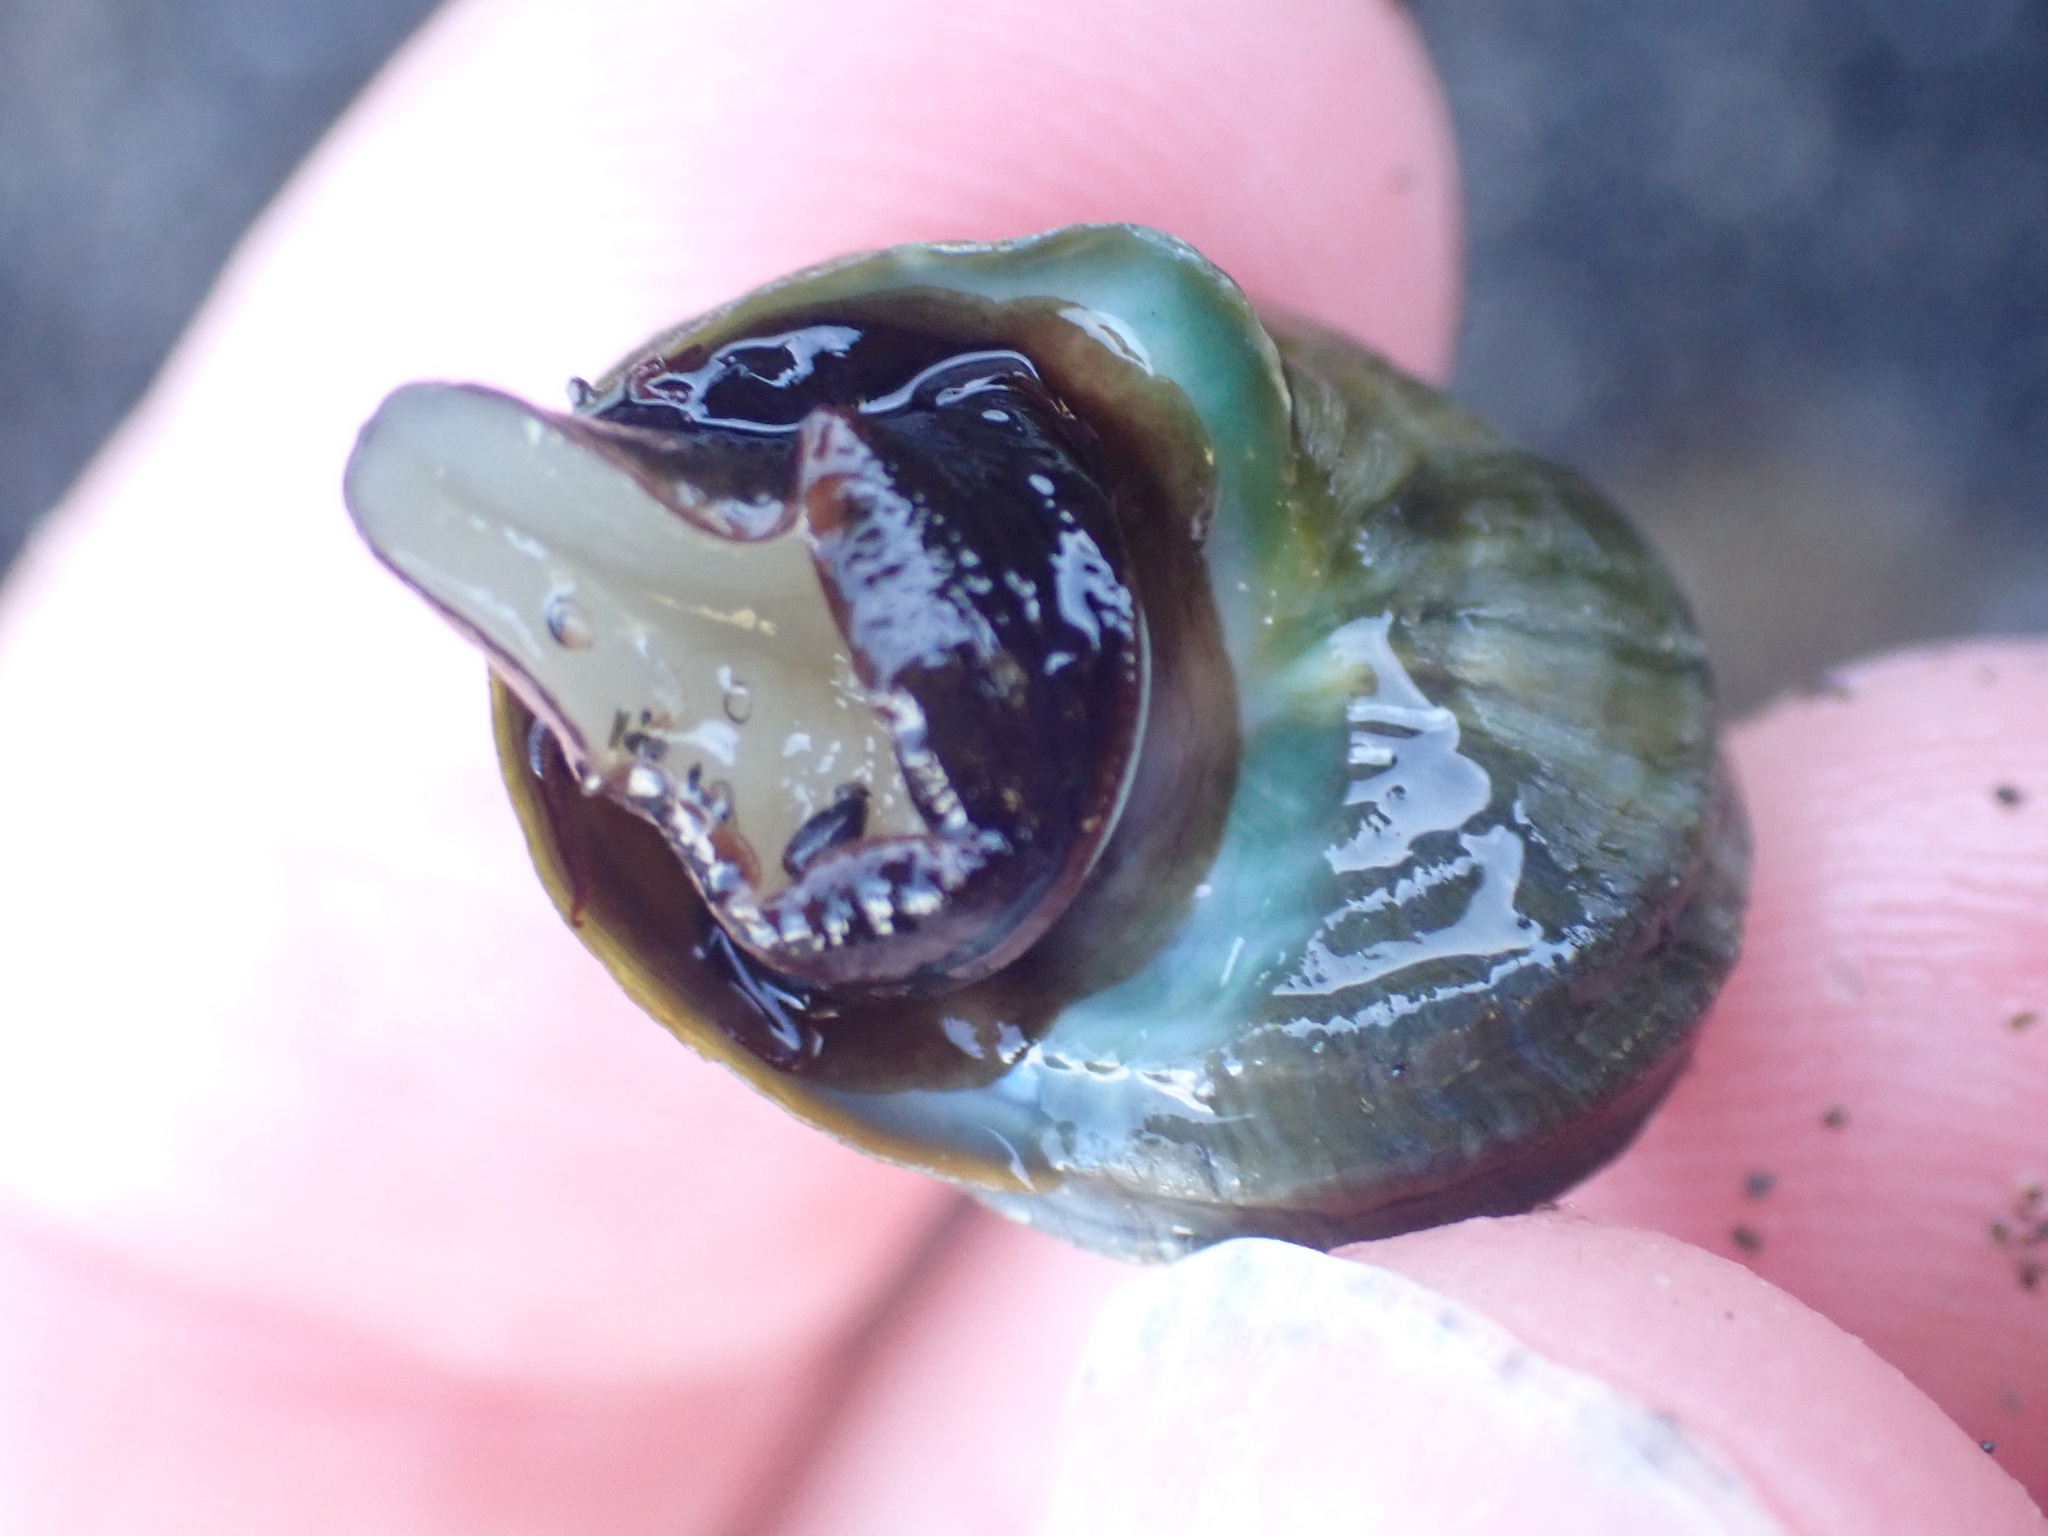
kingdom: Animalia
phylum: Mollusca
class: Gastropoda
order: Trochida
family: Turbinidae
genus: Lunella
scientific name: Lunella smaragda
